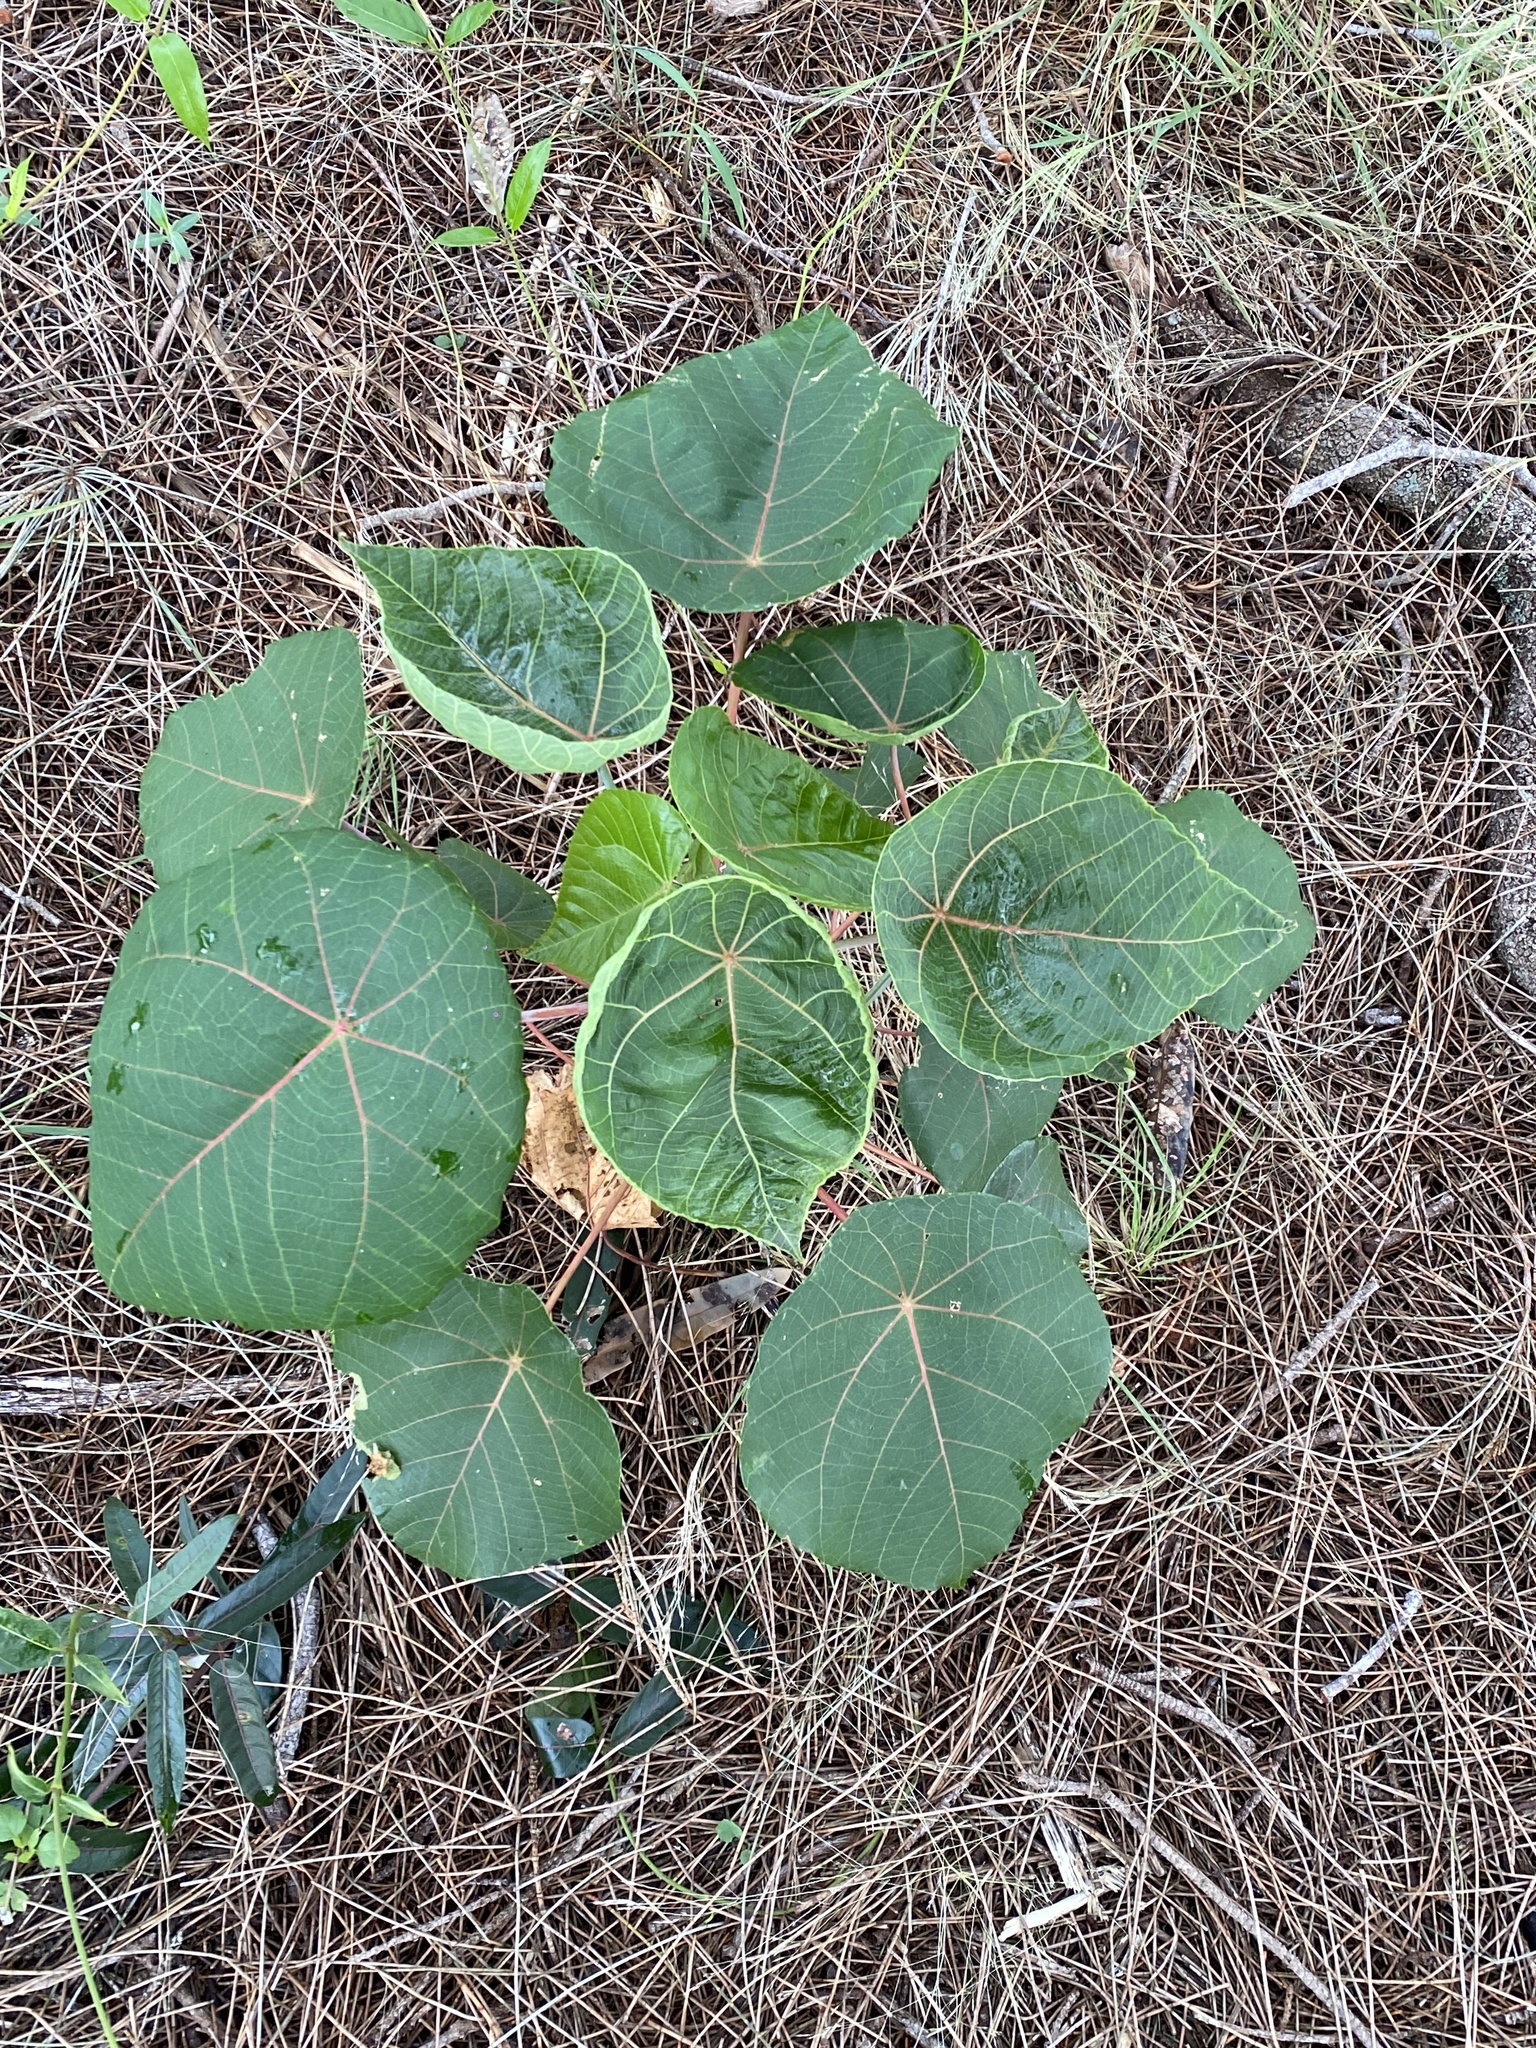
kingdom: Plantae
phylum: Tracheophyta
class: Magnoliopsida
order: Malpighiales
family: Euphorbiaceae
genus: Macaranga
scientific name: Macaranga tanarius
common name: Parasol leaf tree
